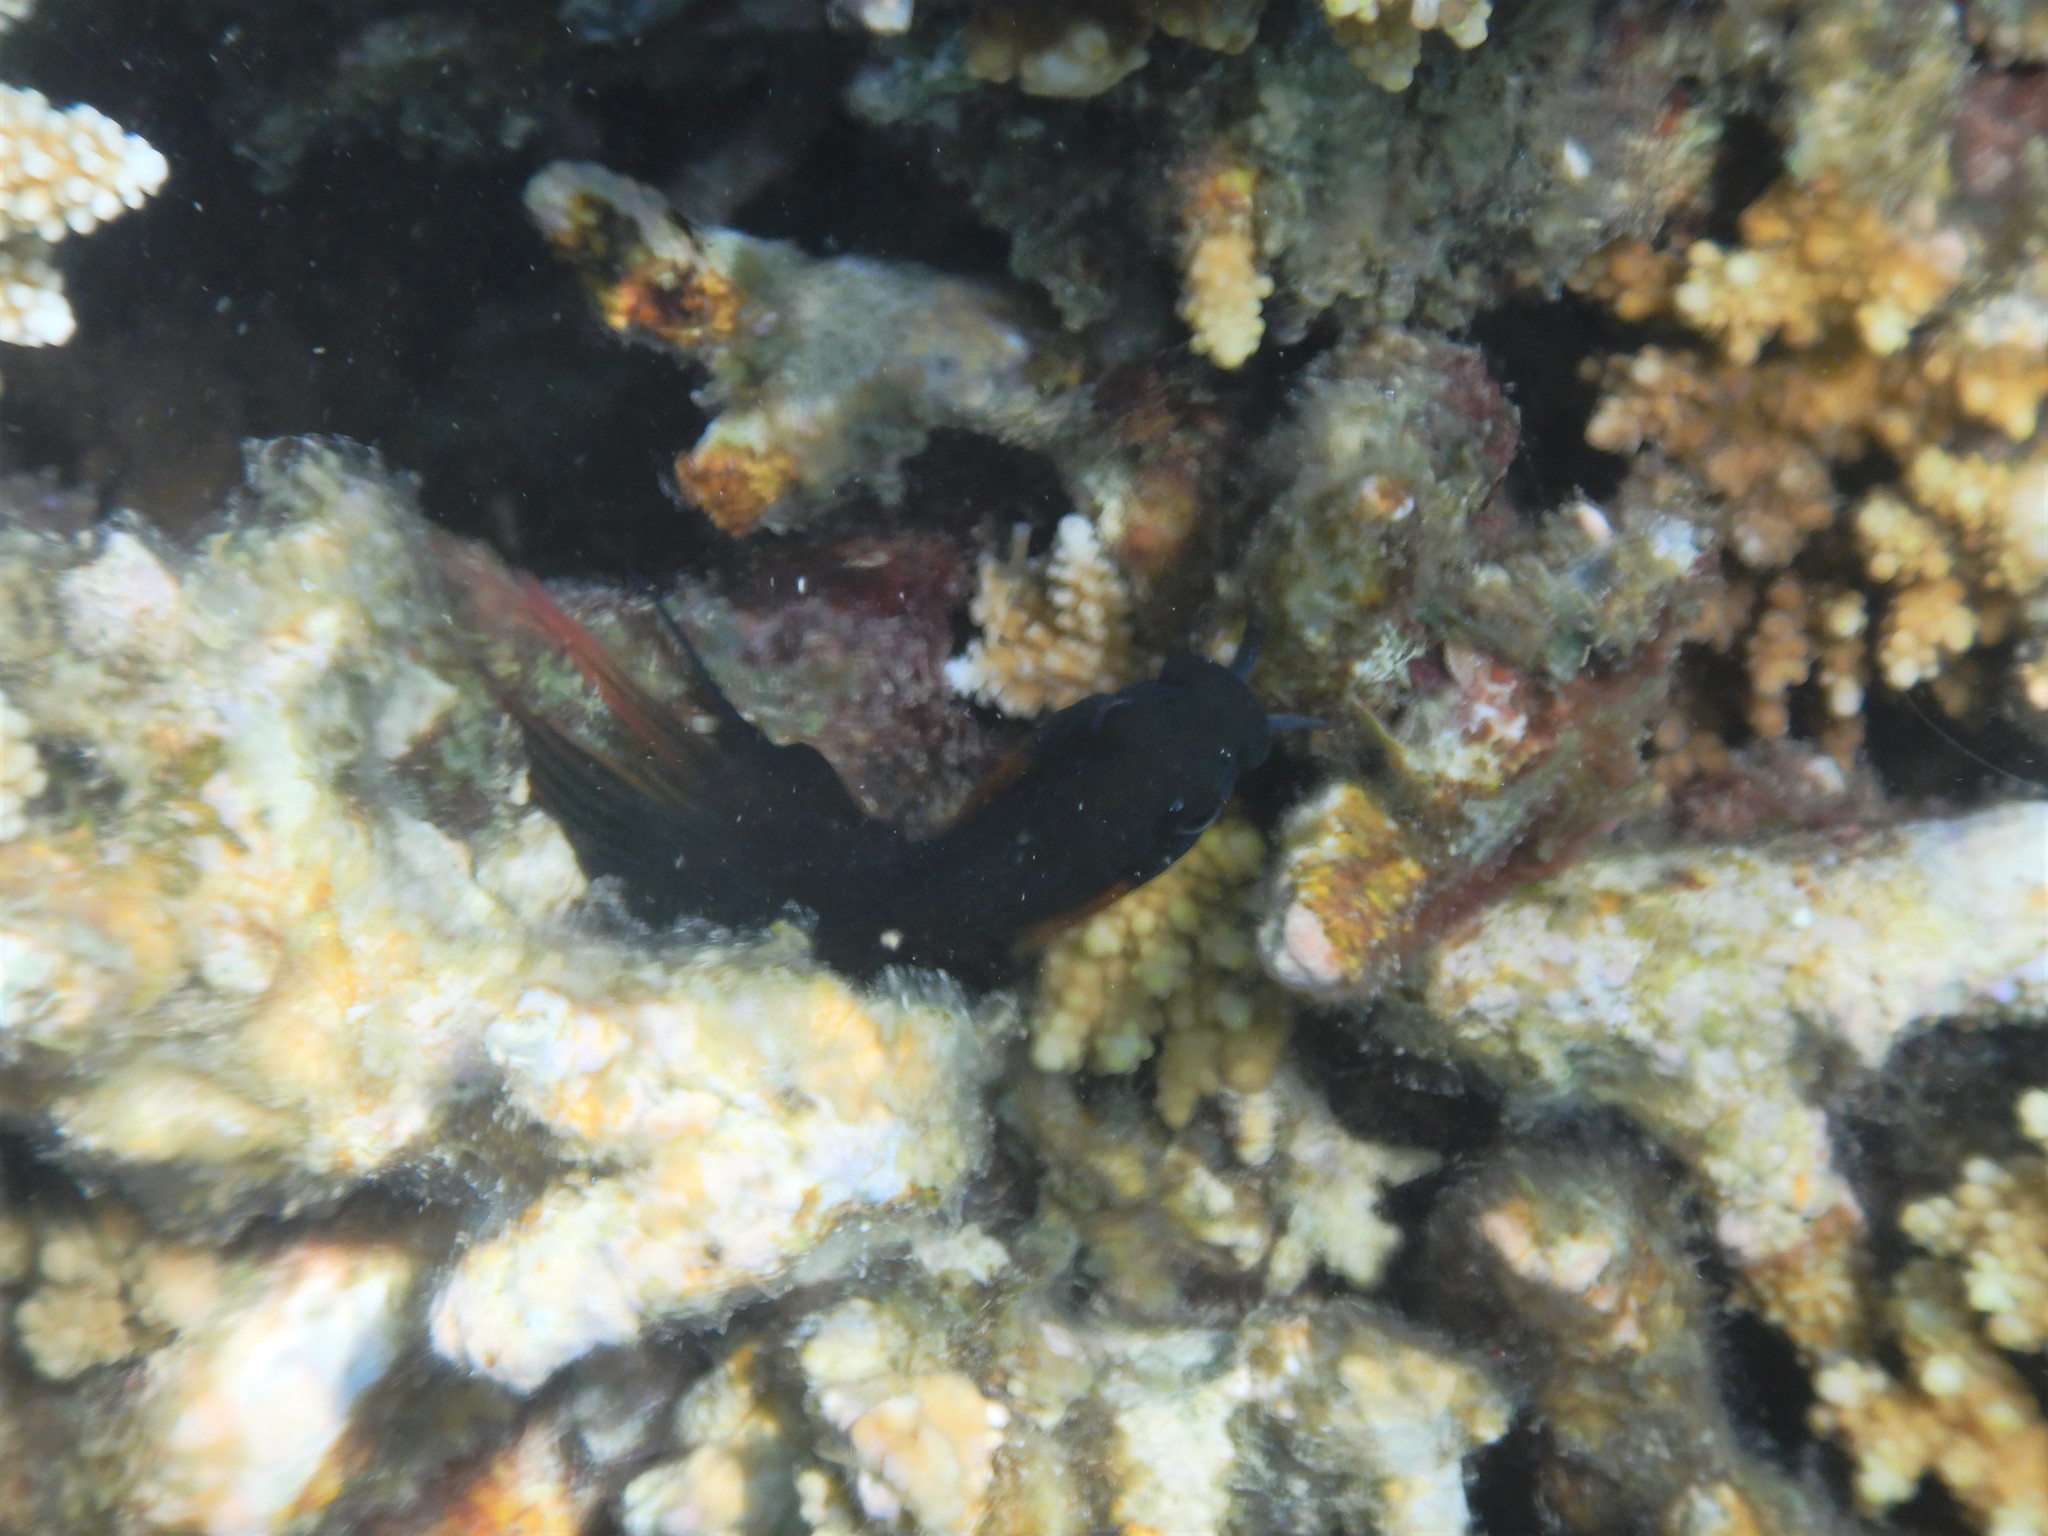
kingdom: Animalia
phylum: Chordata
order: Perciformes
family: Blenniidae
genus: Atrosalarias
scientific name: Atrosalarias holomelas
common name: Brown coral blenny
